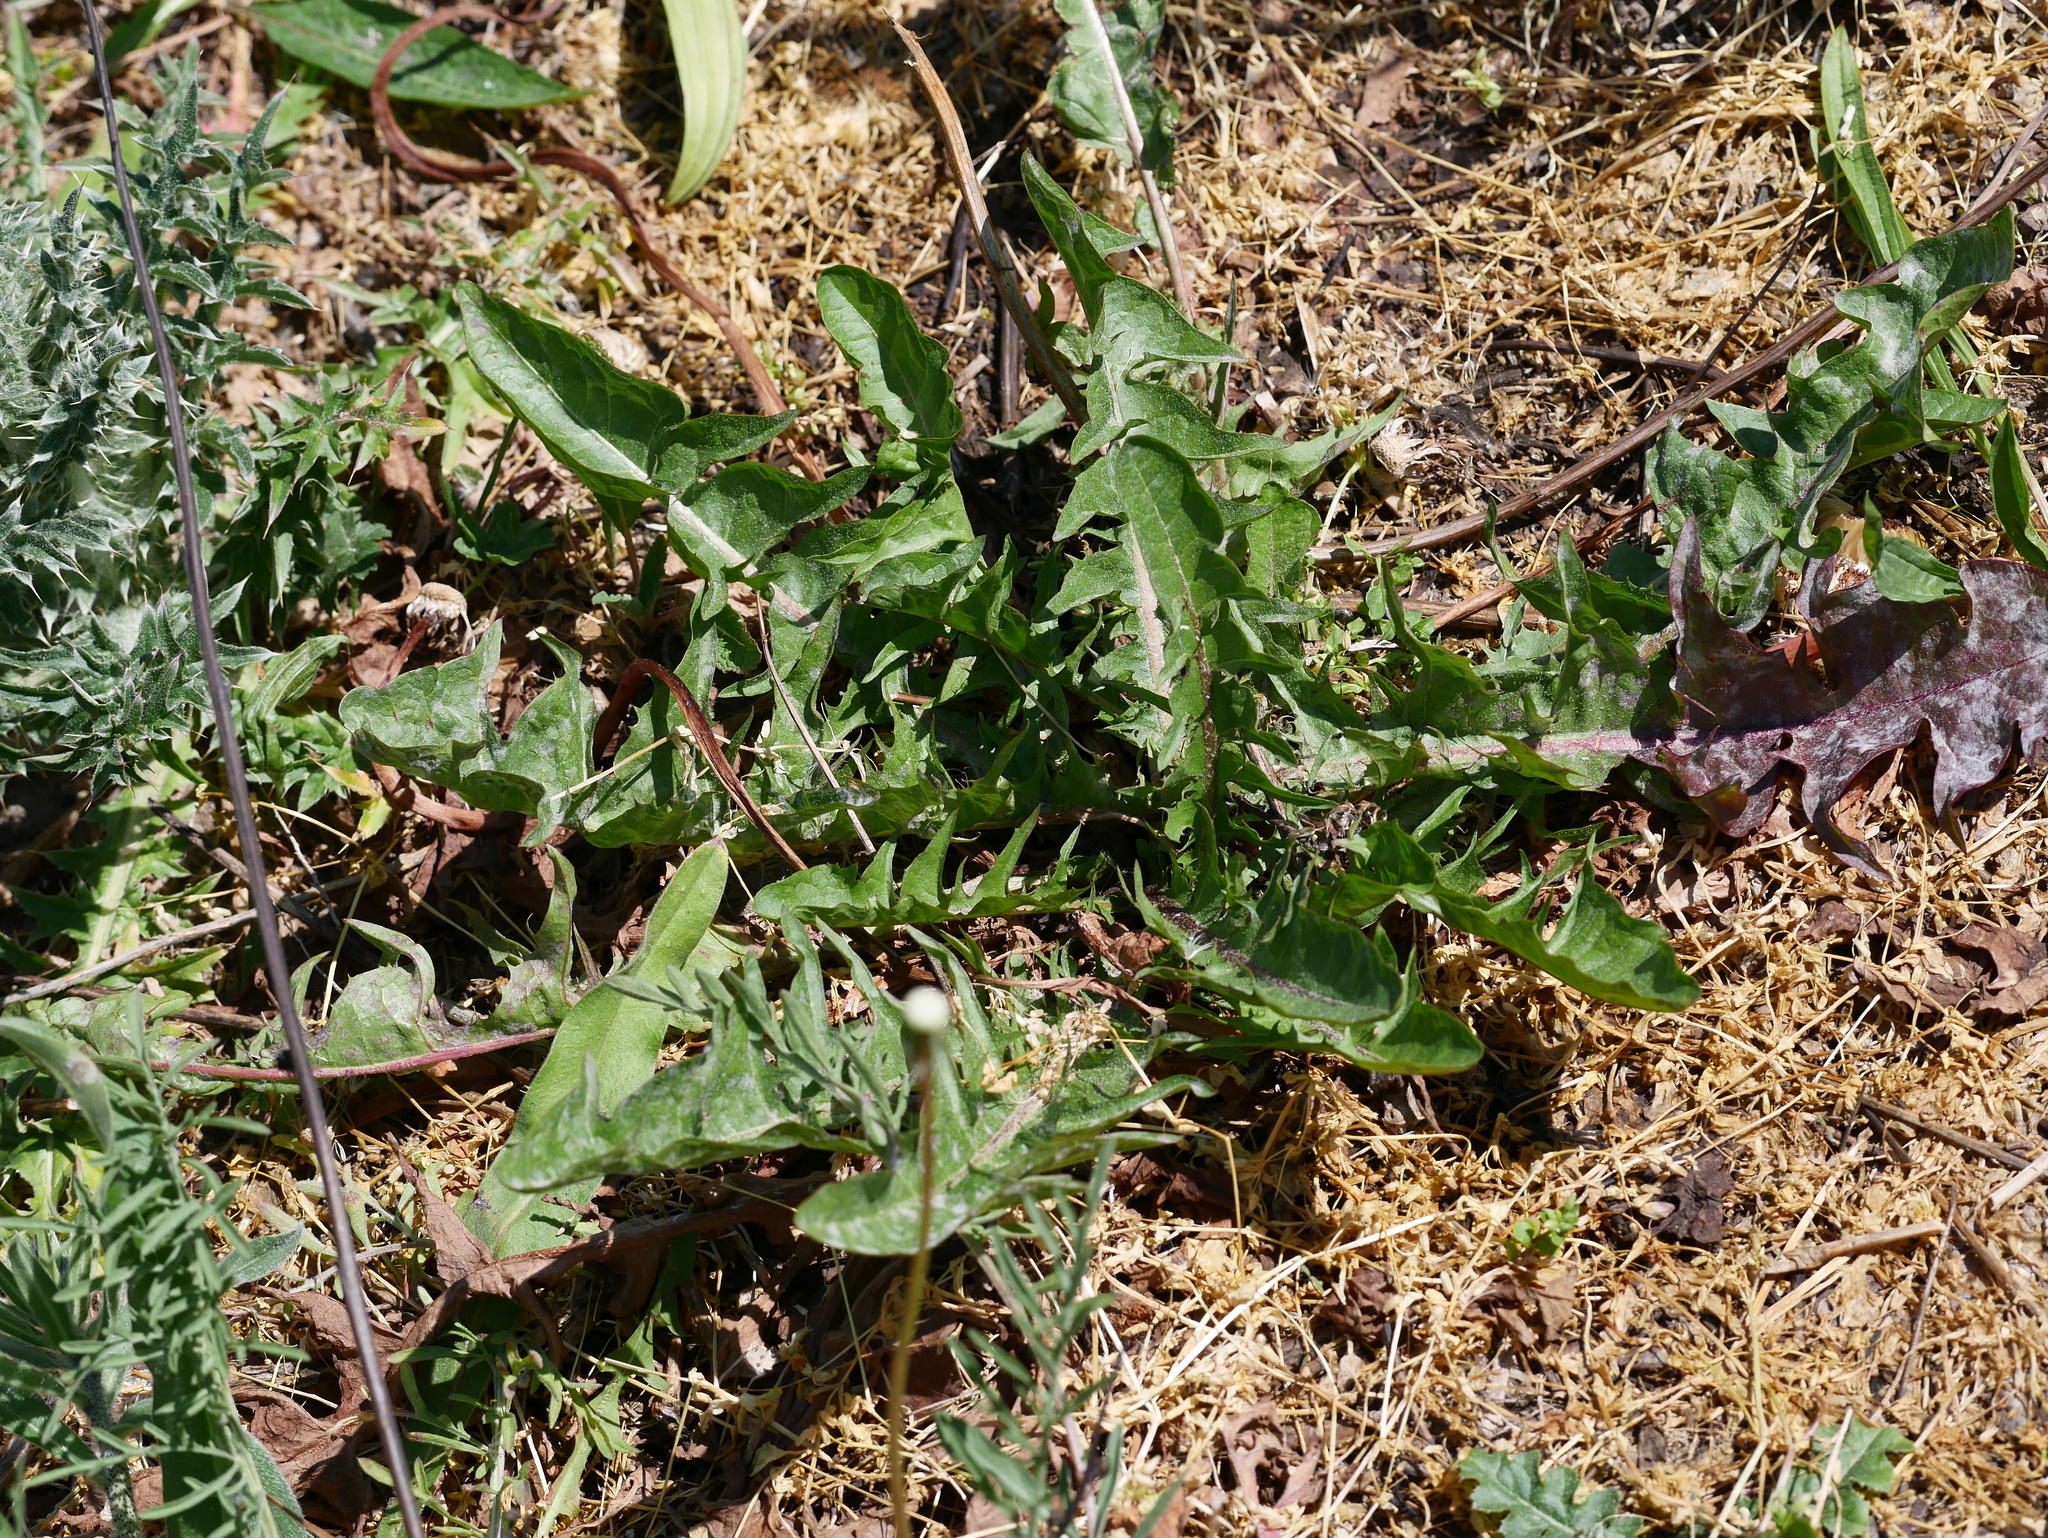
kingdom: Plantae
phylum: Tracheophyta
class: Magnoliopsida
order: Asterales
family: Asteraceae
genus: Taraxacum
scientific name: Taraxacum officinale
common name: Common dandelion
